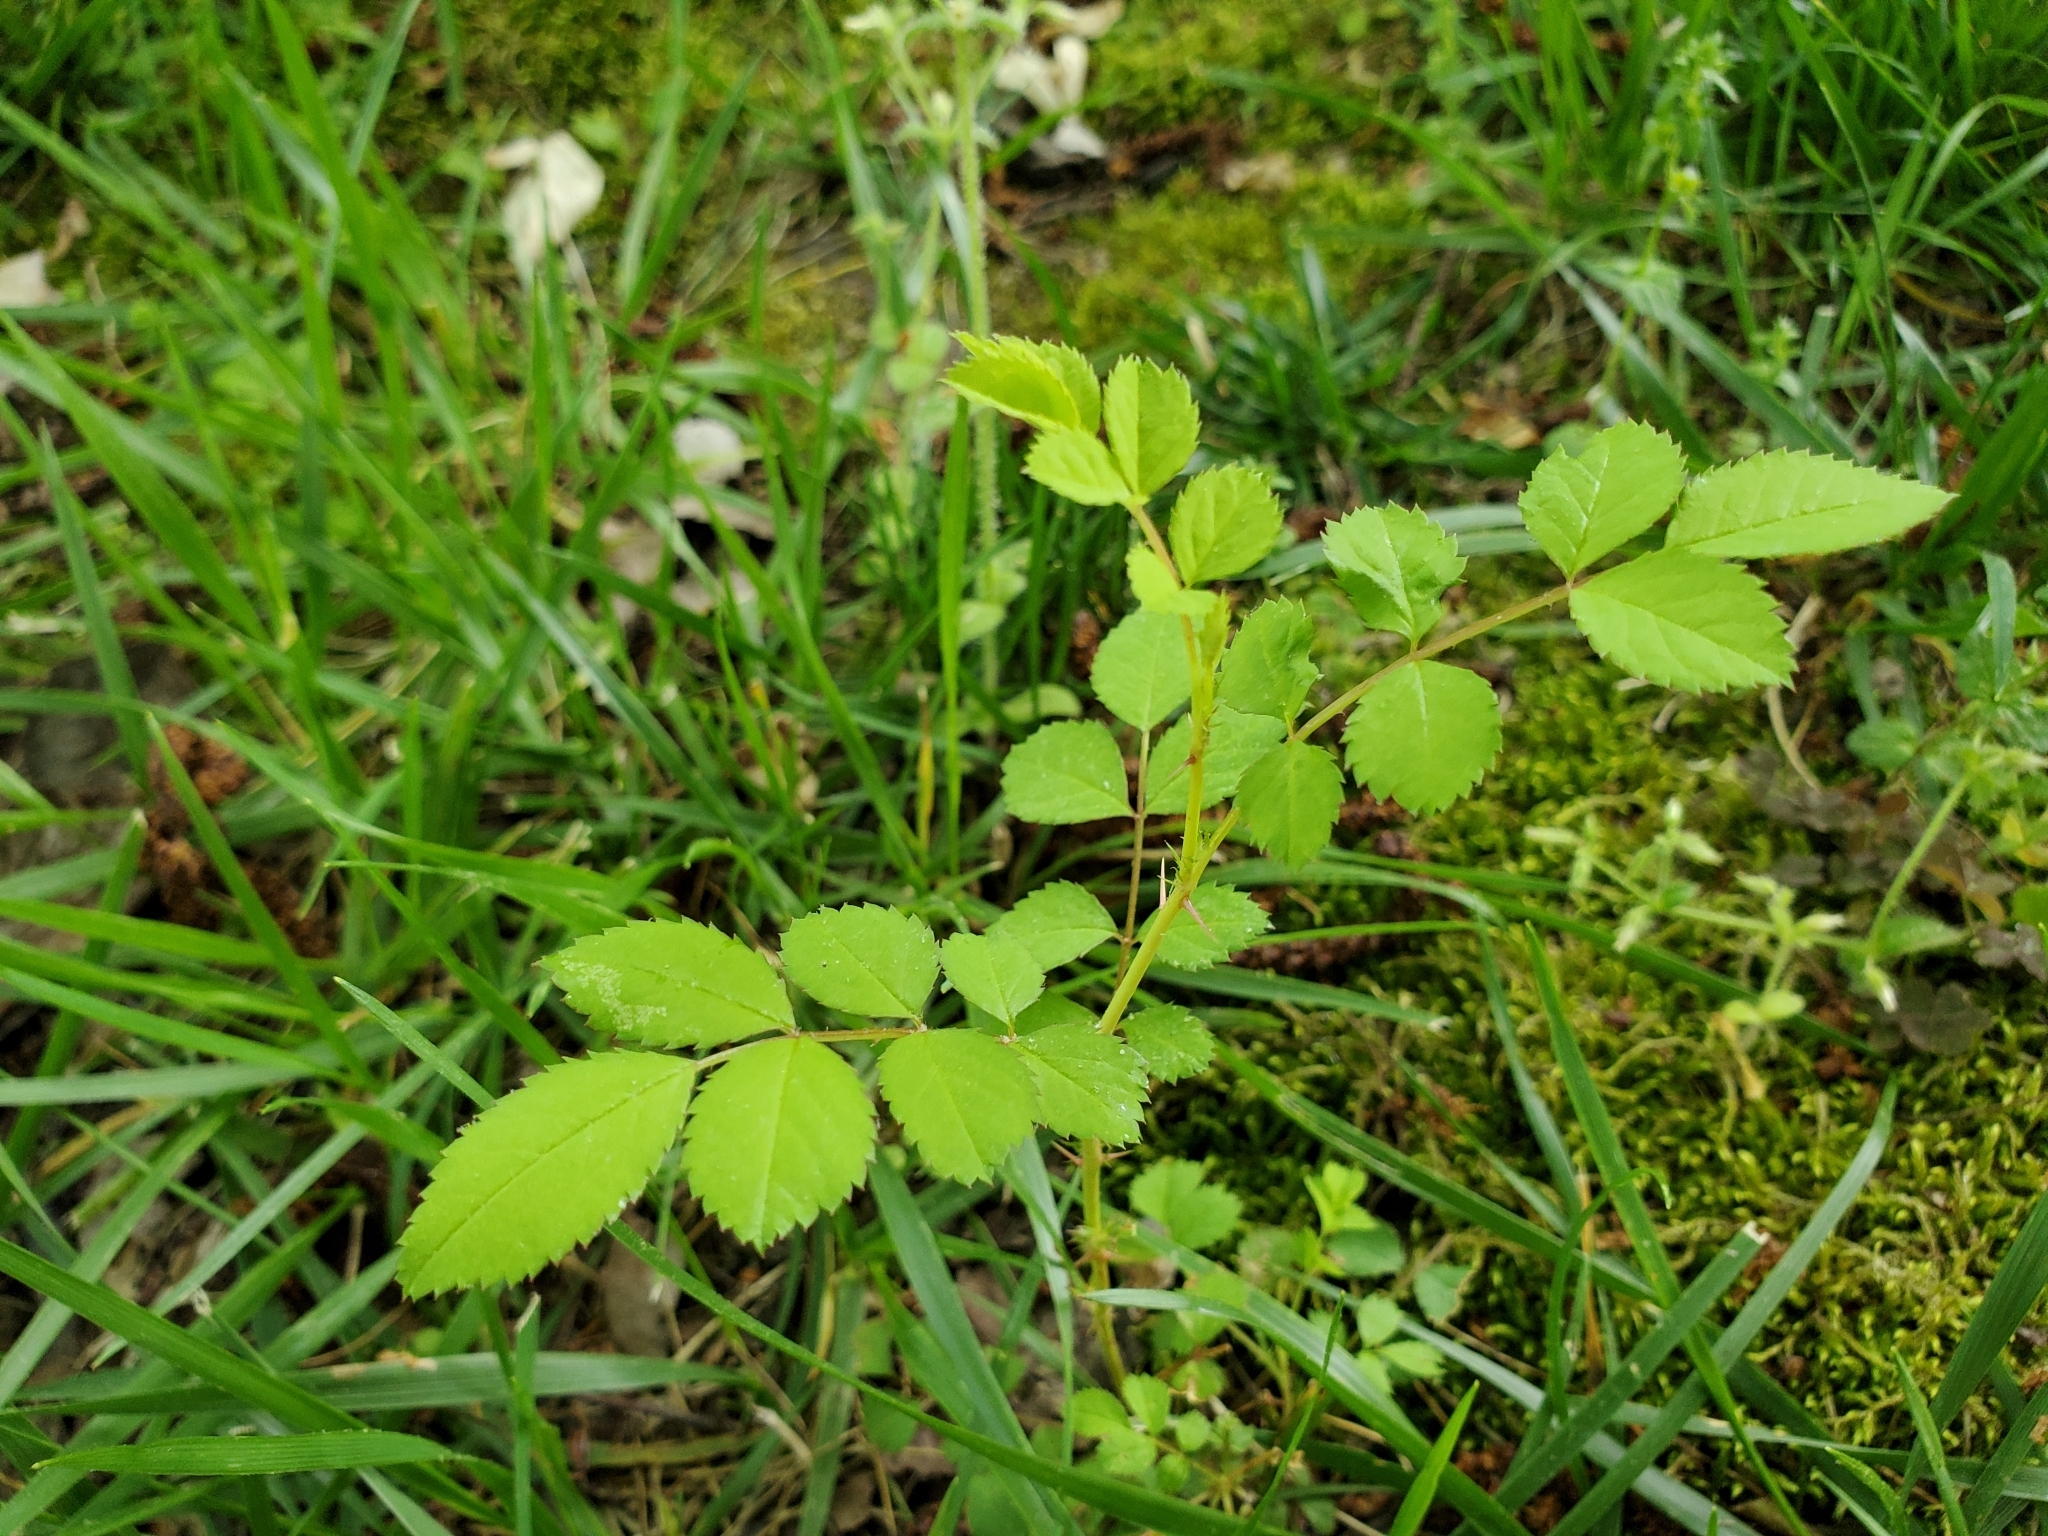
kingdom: Plantae
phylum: Tracheophyta
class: Magnoliopsida
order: Rosales
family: Rosaceae
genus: Rosa
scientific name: Rosa multiflora
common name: Multiflora rose
